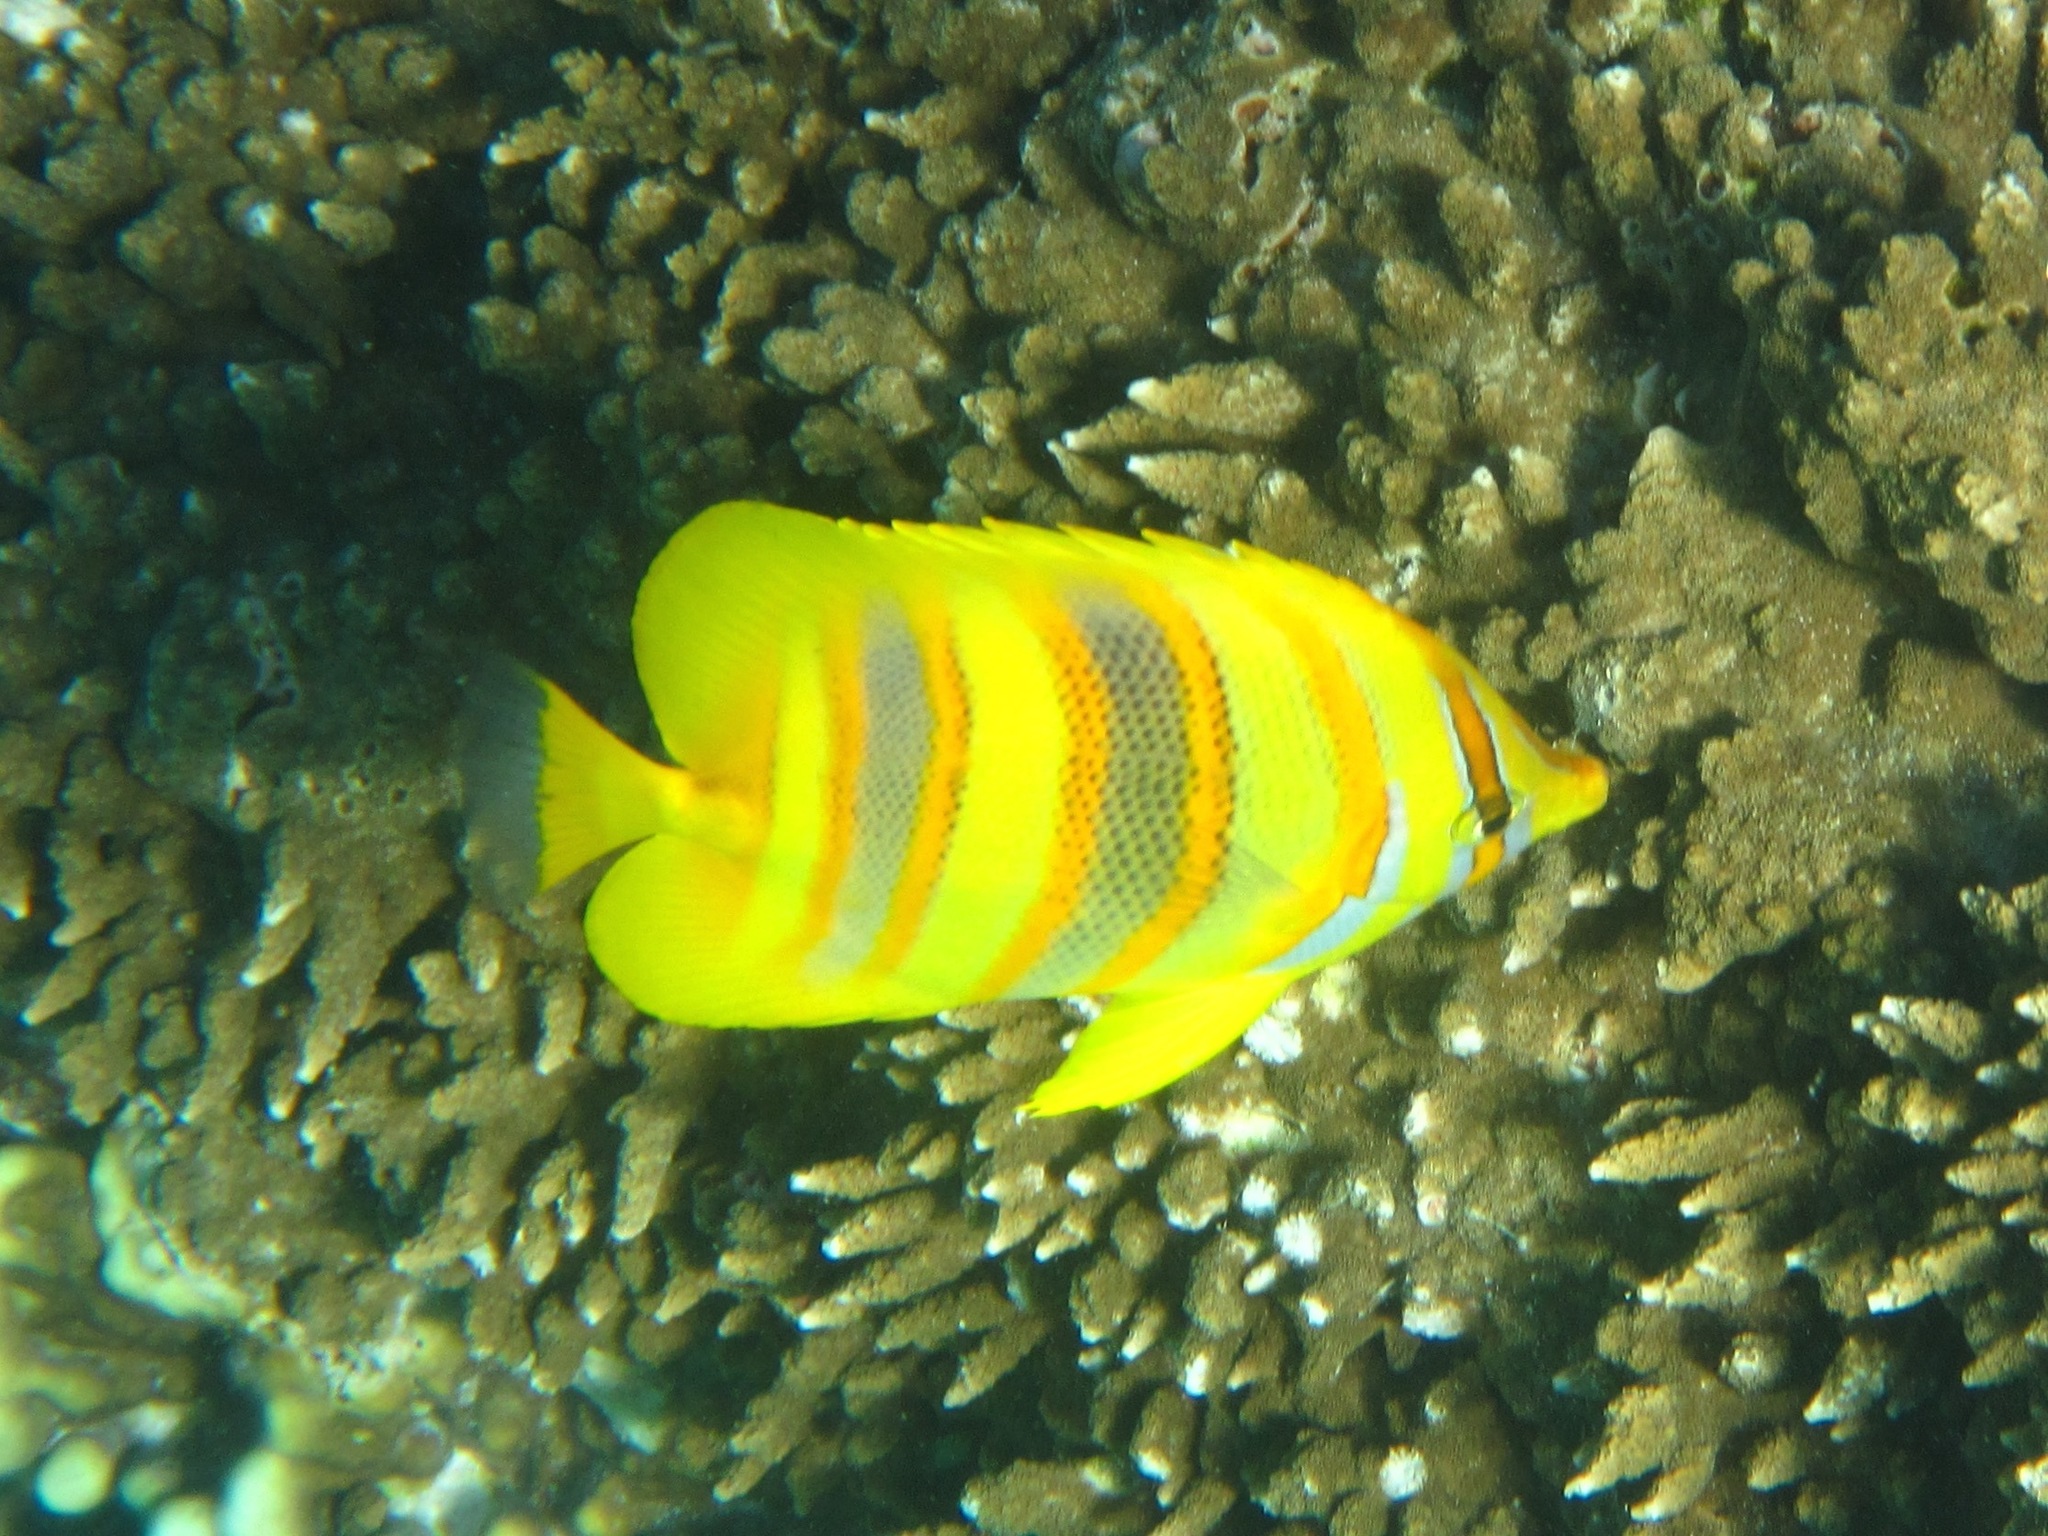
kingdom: Animalia
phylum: Chordata
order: Perciformes
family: Chaetodontidae
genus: Chaetodon
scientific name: Chaetodon rainfordi
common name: Rainford's butterflyfish
